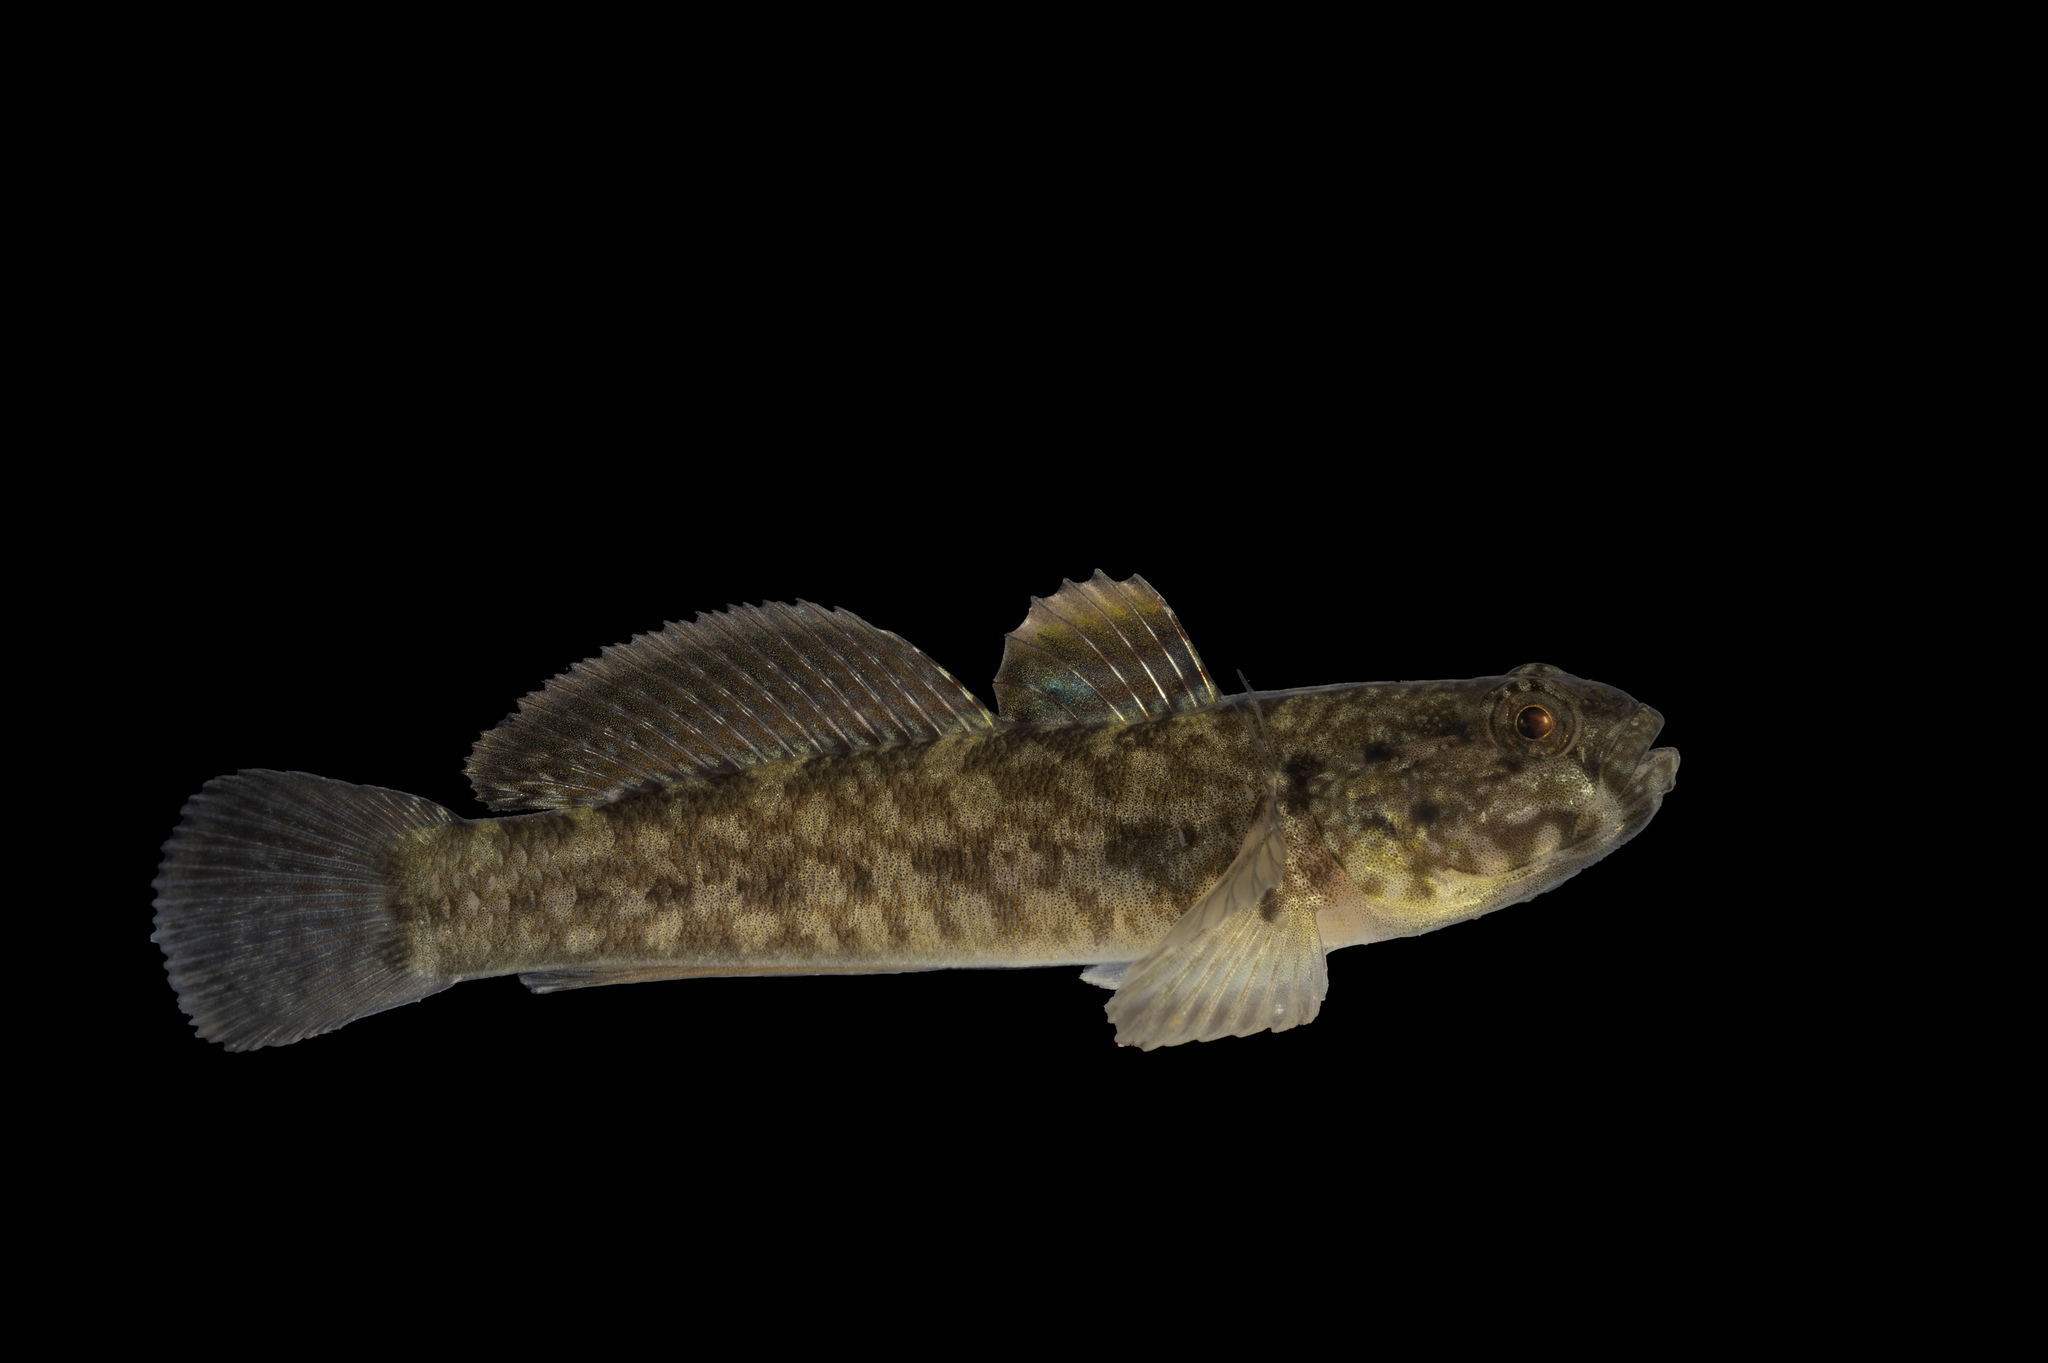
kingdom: Animalia
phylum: Chordata
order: Perciformes
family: Gobiidae
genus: Gobius
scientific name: Gobius paganellus
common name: Rock goby
